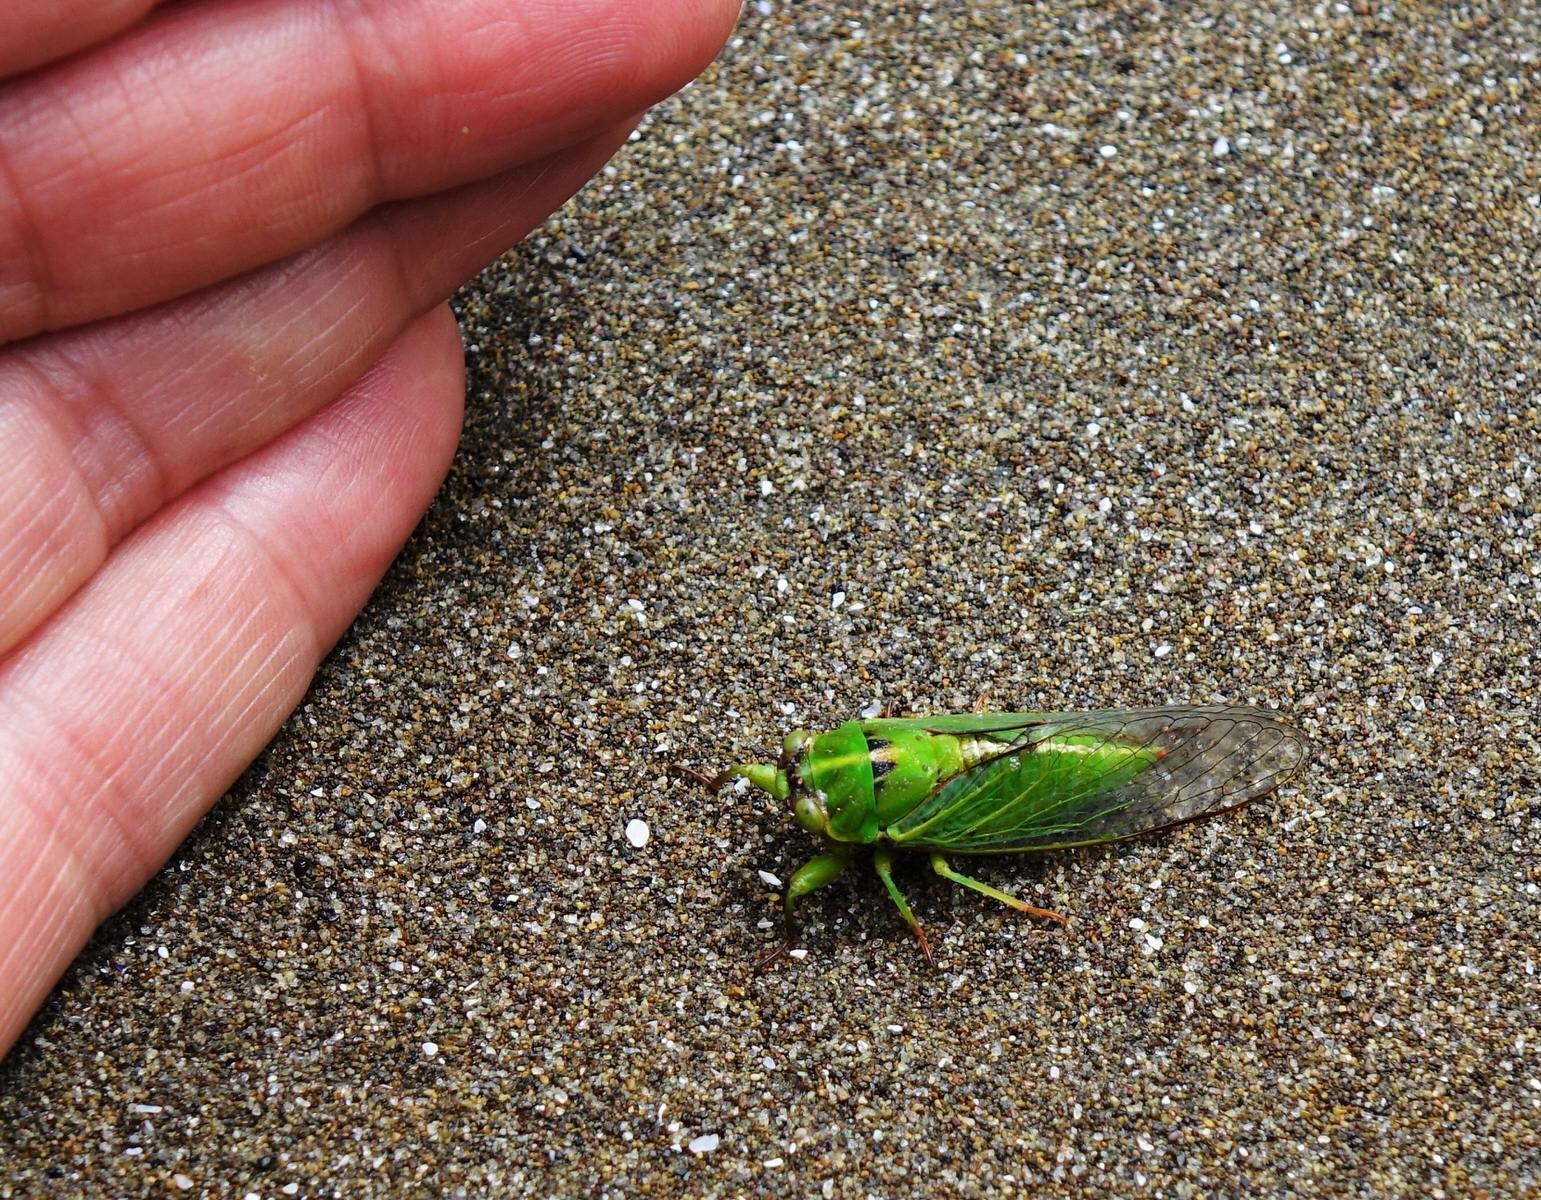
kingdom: Animalia
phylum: Arthropoda
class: Insecta
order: Hemiptera
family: Cicadidae
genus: Kikihia
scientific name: Kikihia cutora
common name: Northern snoring cicada
